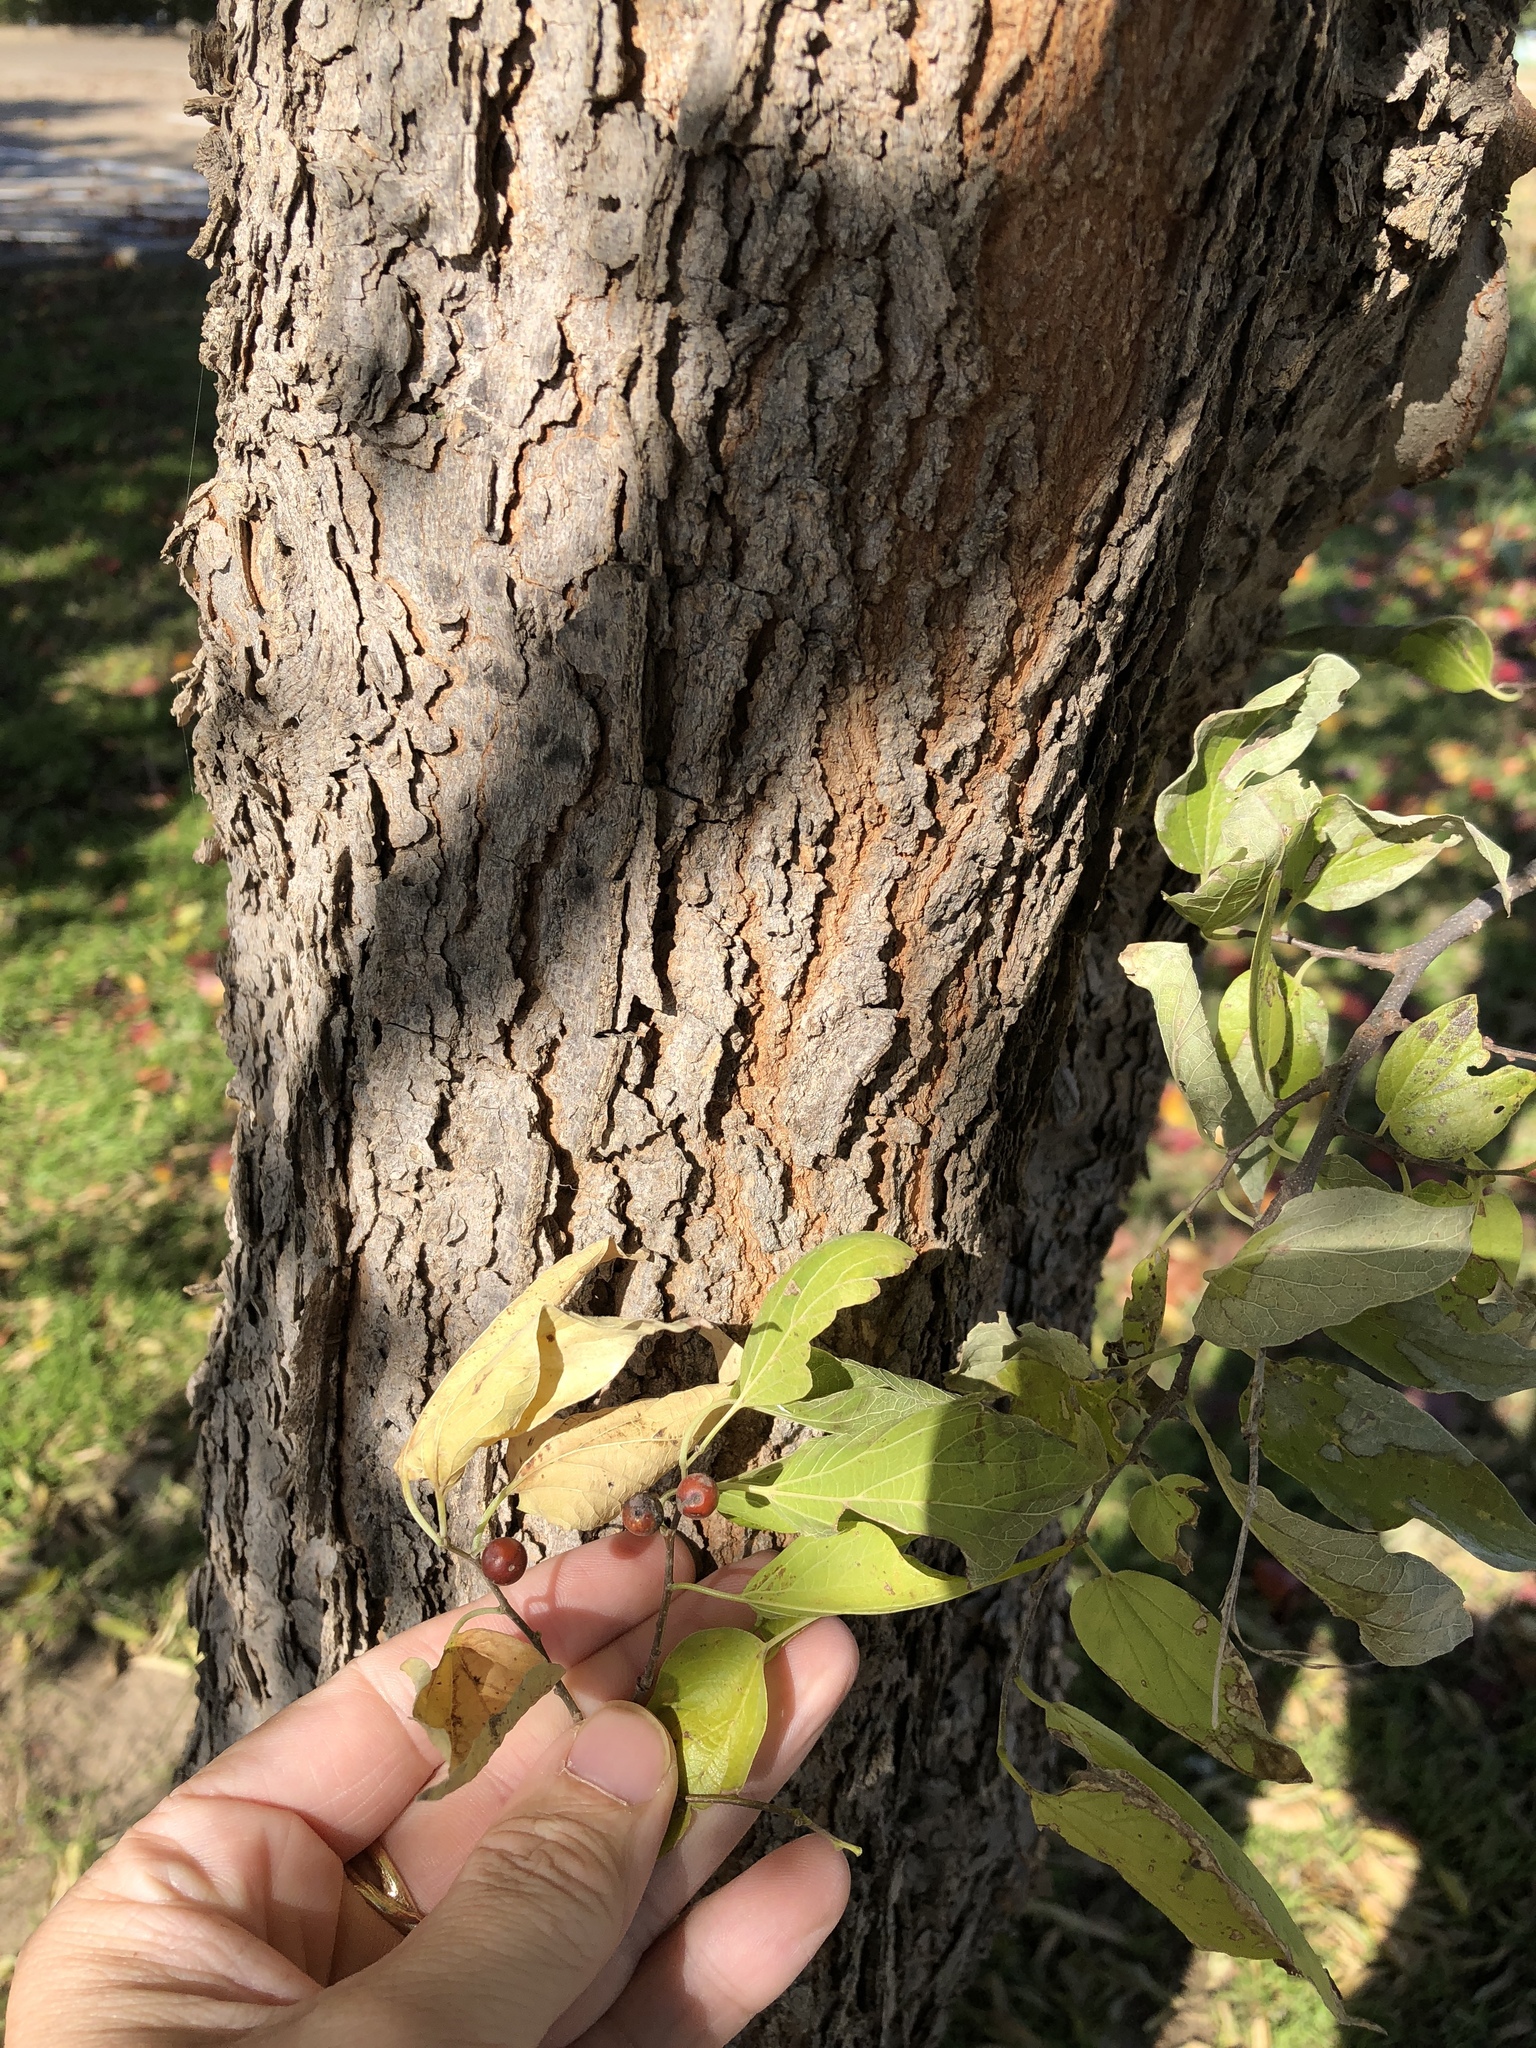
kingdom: Plantae
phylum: Tracheophyta
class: Magnoliopsida
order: Rosales
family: Cannabaceae
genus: Celtis
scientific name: Celtis laevigata
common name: Sugarberry
